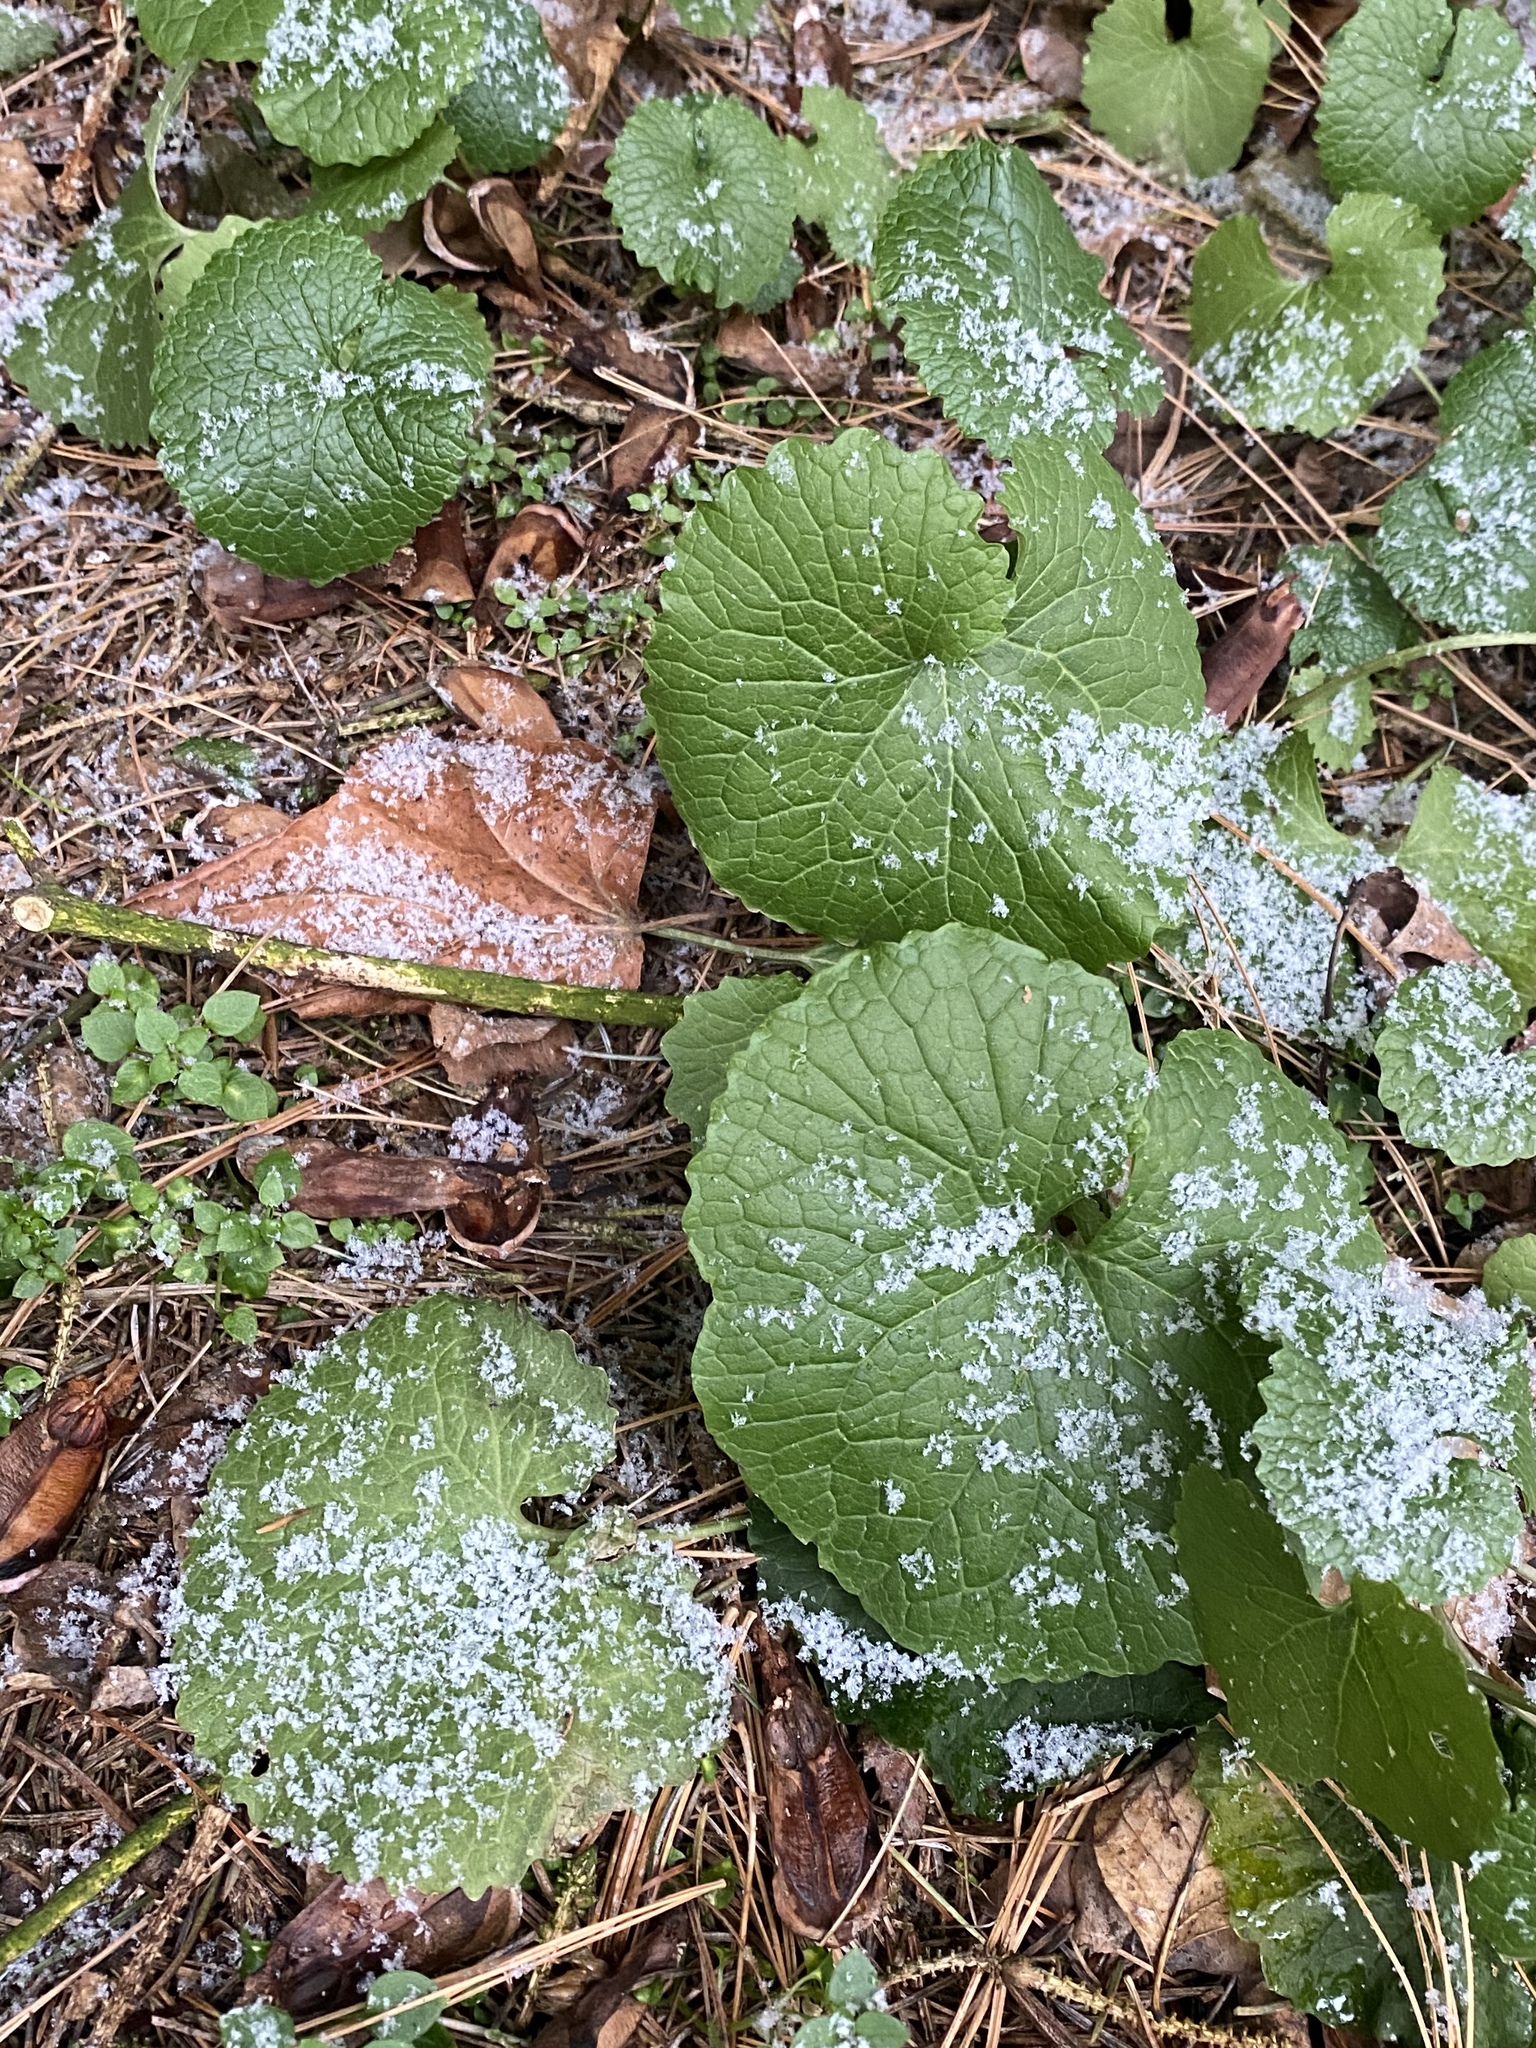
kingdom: Plantae
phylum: Tracheophyta
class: Magnoliopsida
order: Brassicales
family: Brassicaceae
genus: Alliaria
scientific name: Alliaria petiolata
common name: Garlic mustard
